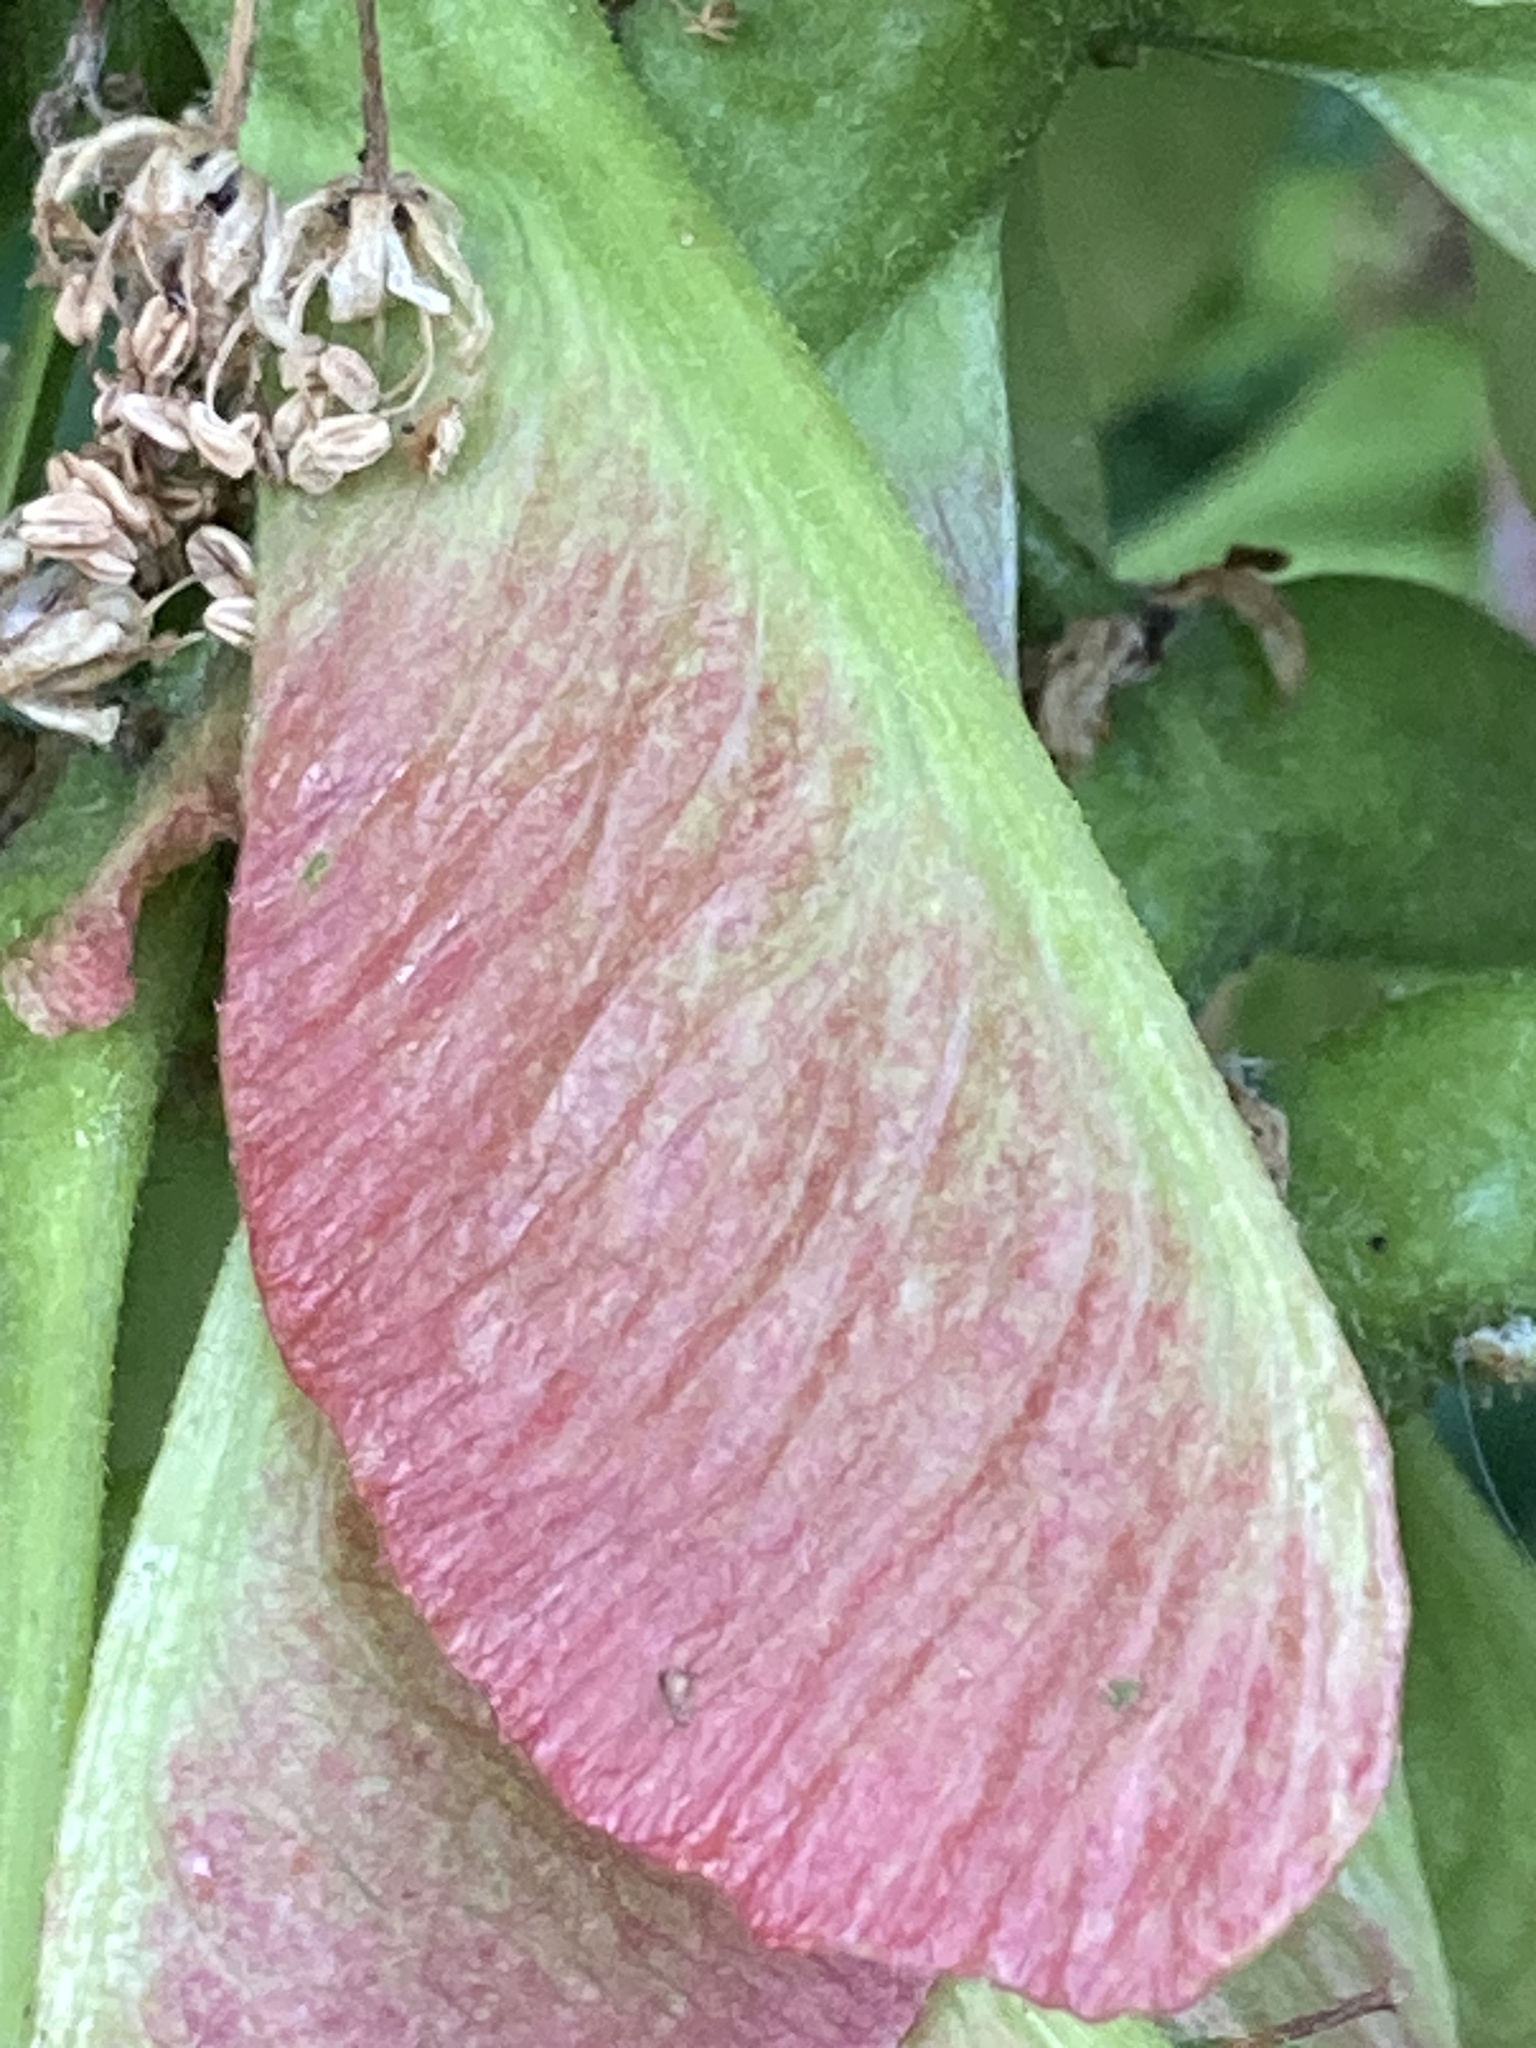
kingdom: Plantae
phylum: Tracheophyta
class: Magnoliopsida
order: Sapindales
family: Sapindaceae
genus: Acer
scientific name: Acer pseudoplatanus
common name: Sycamore
